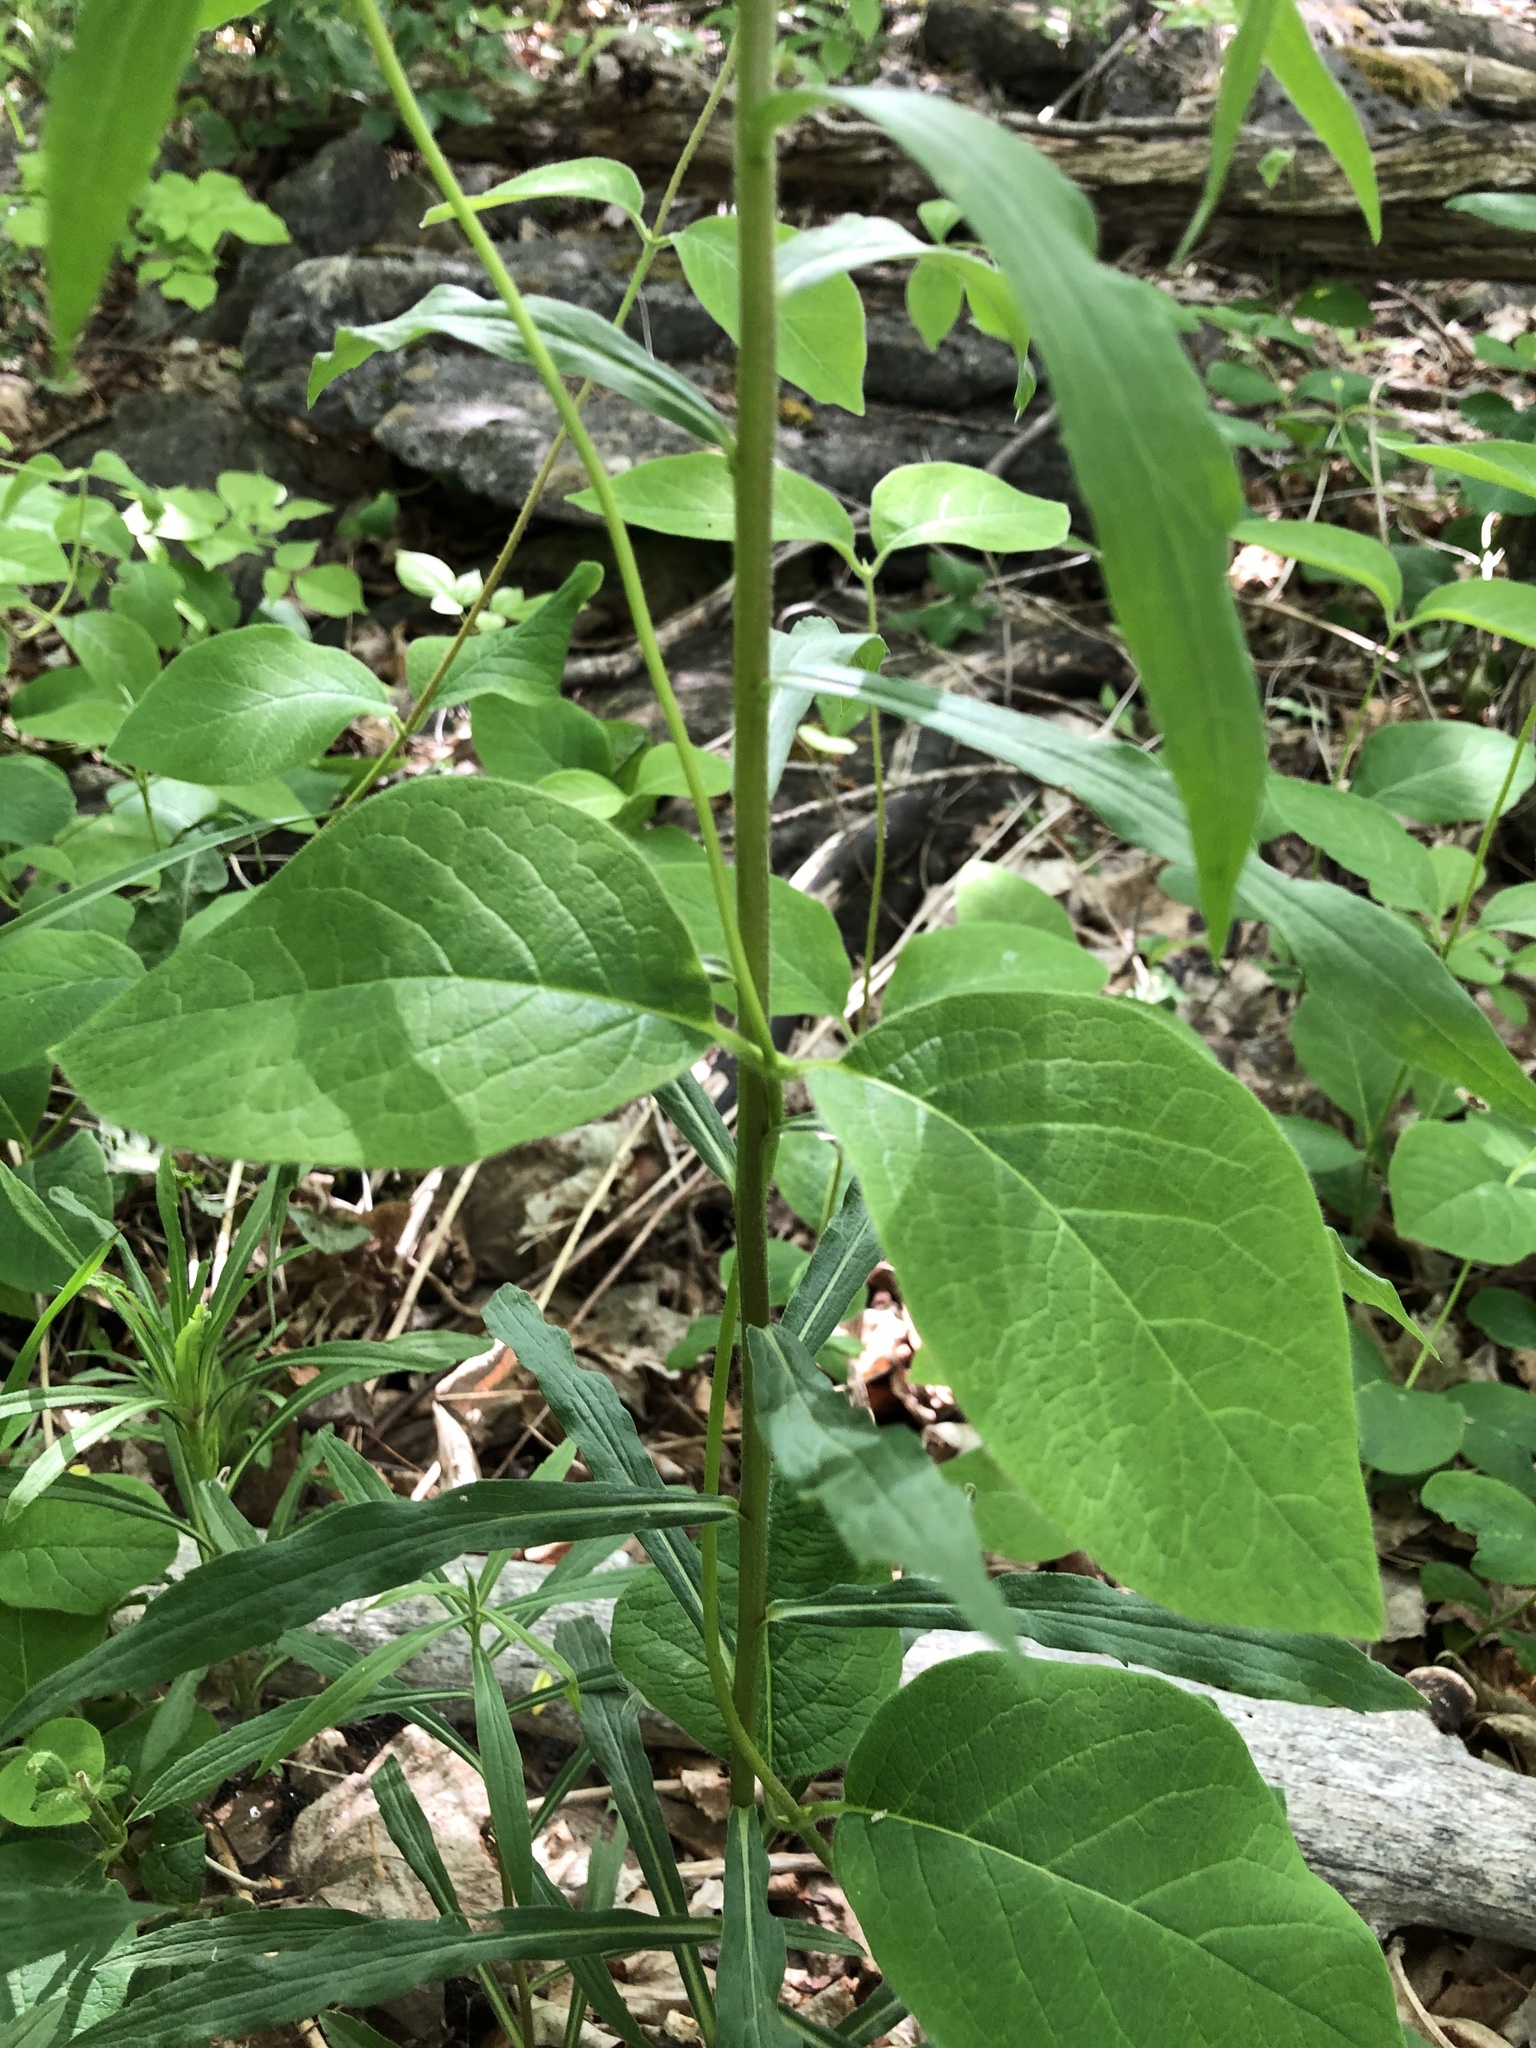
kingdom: Plantae
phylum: Tracheophyta
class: Magnoliopsida
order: Dipsacales
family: Caprifoliaceae
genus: Lonicera
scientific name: Lonicera hirsuta
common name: Hairy honeysuckle
